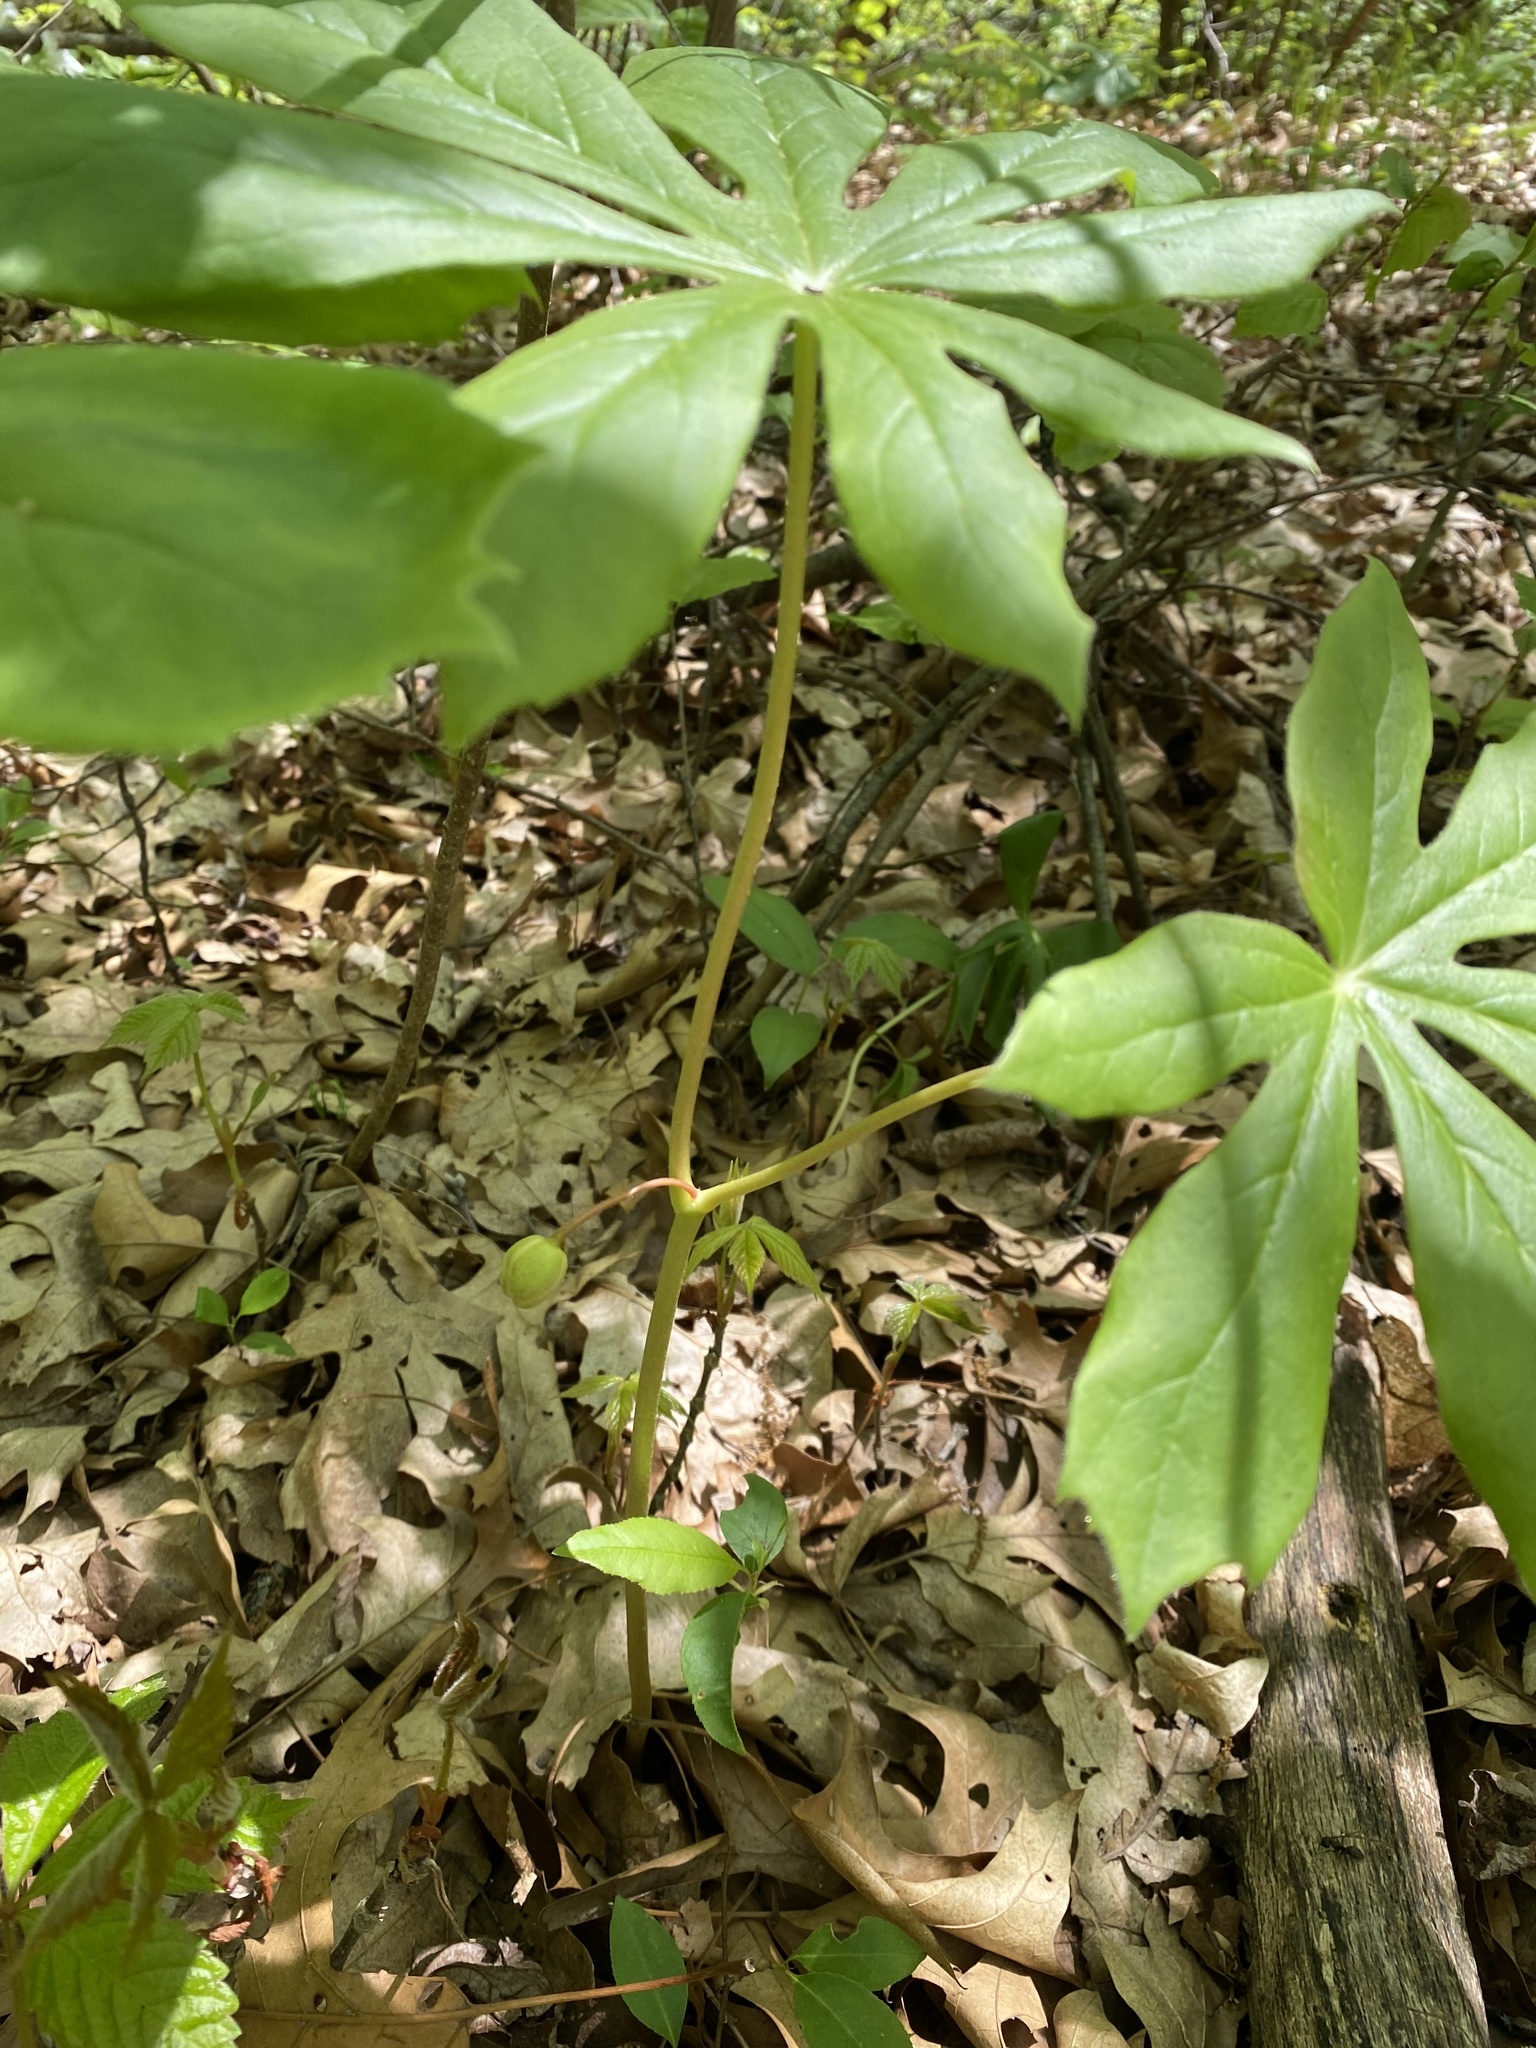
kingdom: Plantae
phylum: Tracheophyta
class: Magnoliopsida
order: Ranunculales
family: Berberidaceae
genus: Podophyllum
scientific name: Podophyllum peltatum
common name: Wild mandrake
